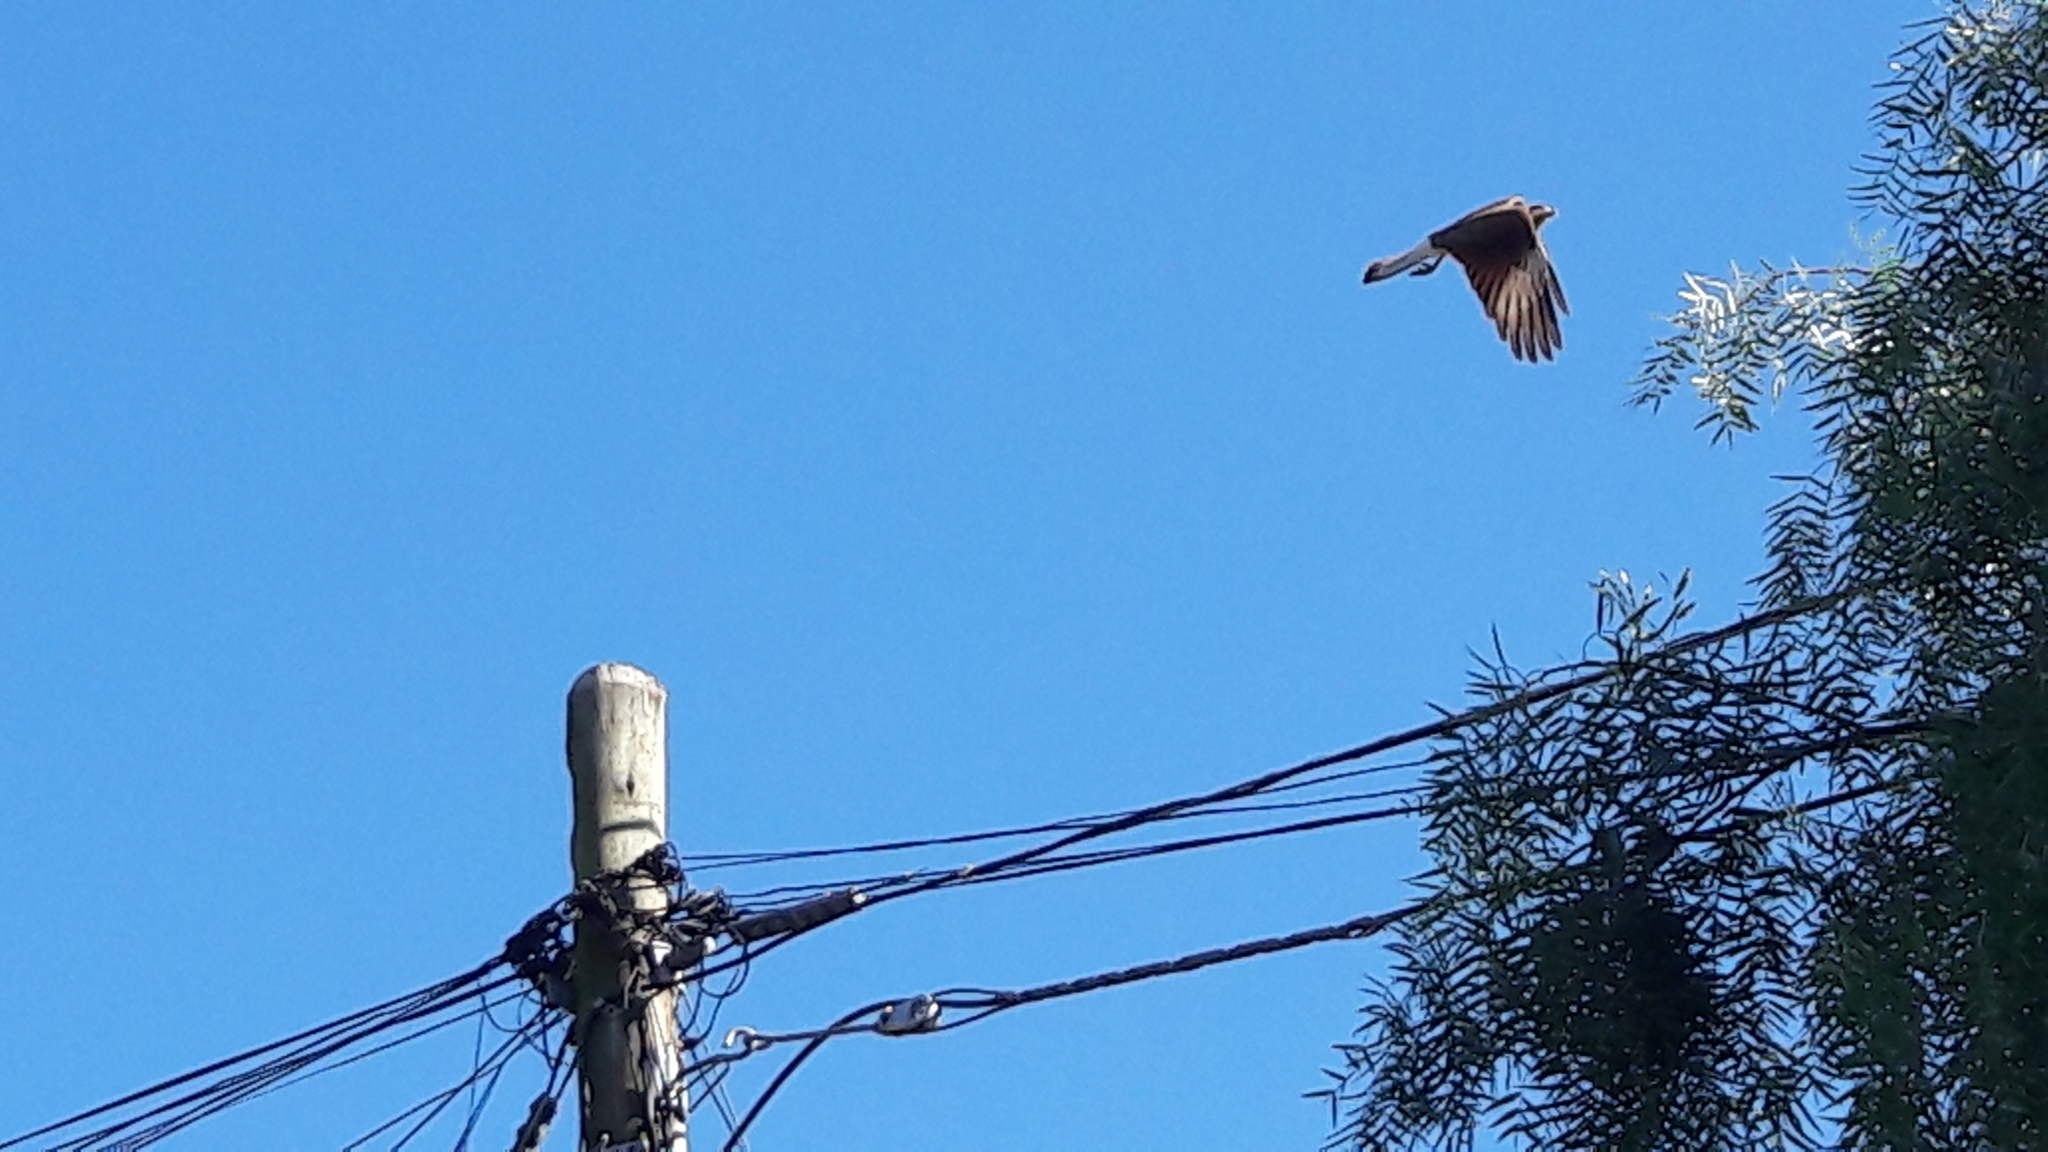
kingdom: Animalia
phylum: Chordata
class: Aves
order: Falconiformes
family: Falconidae
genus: Daptrius
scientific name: Daptrius
